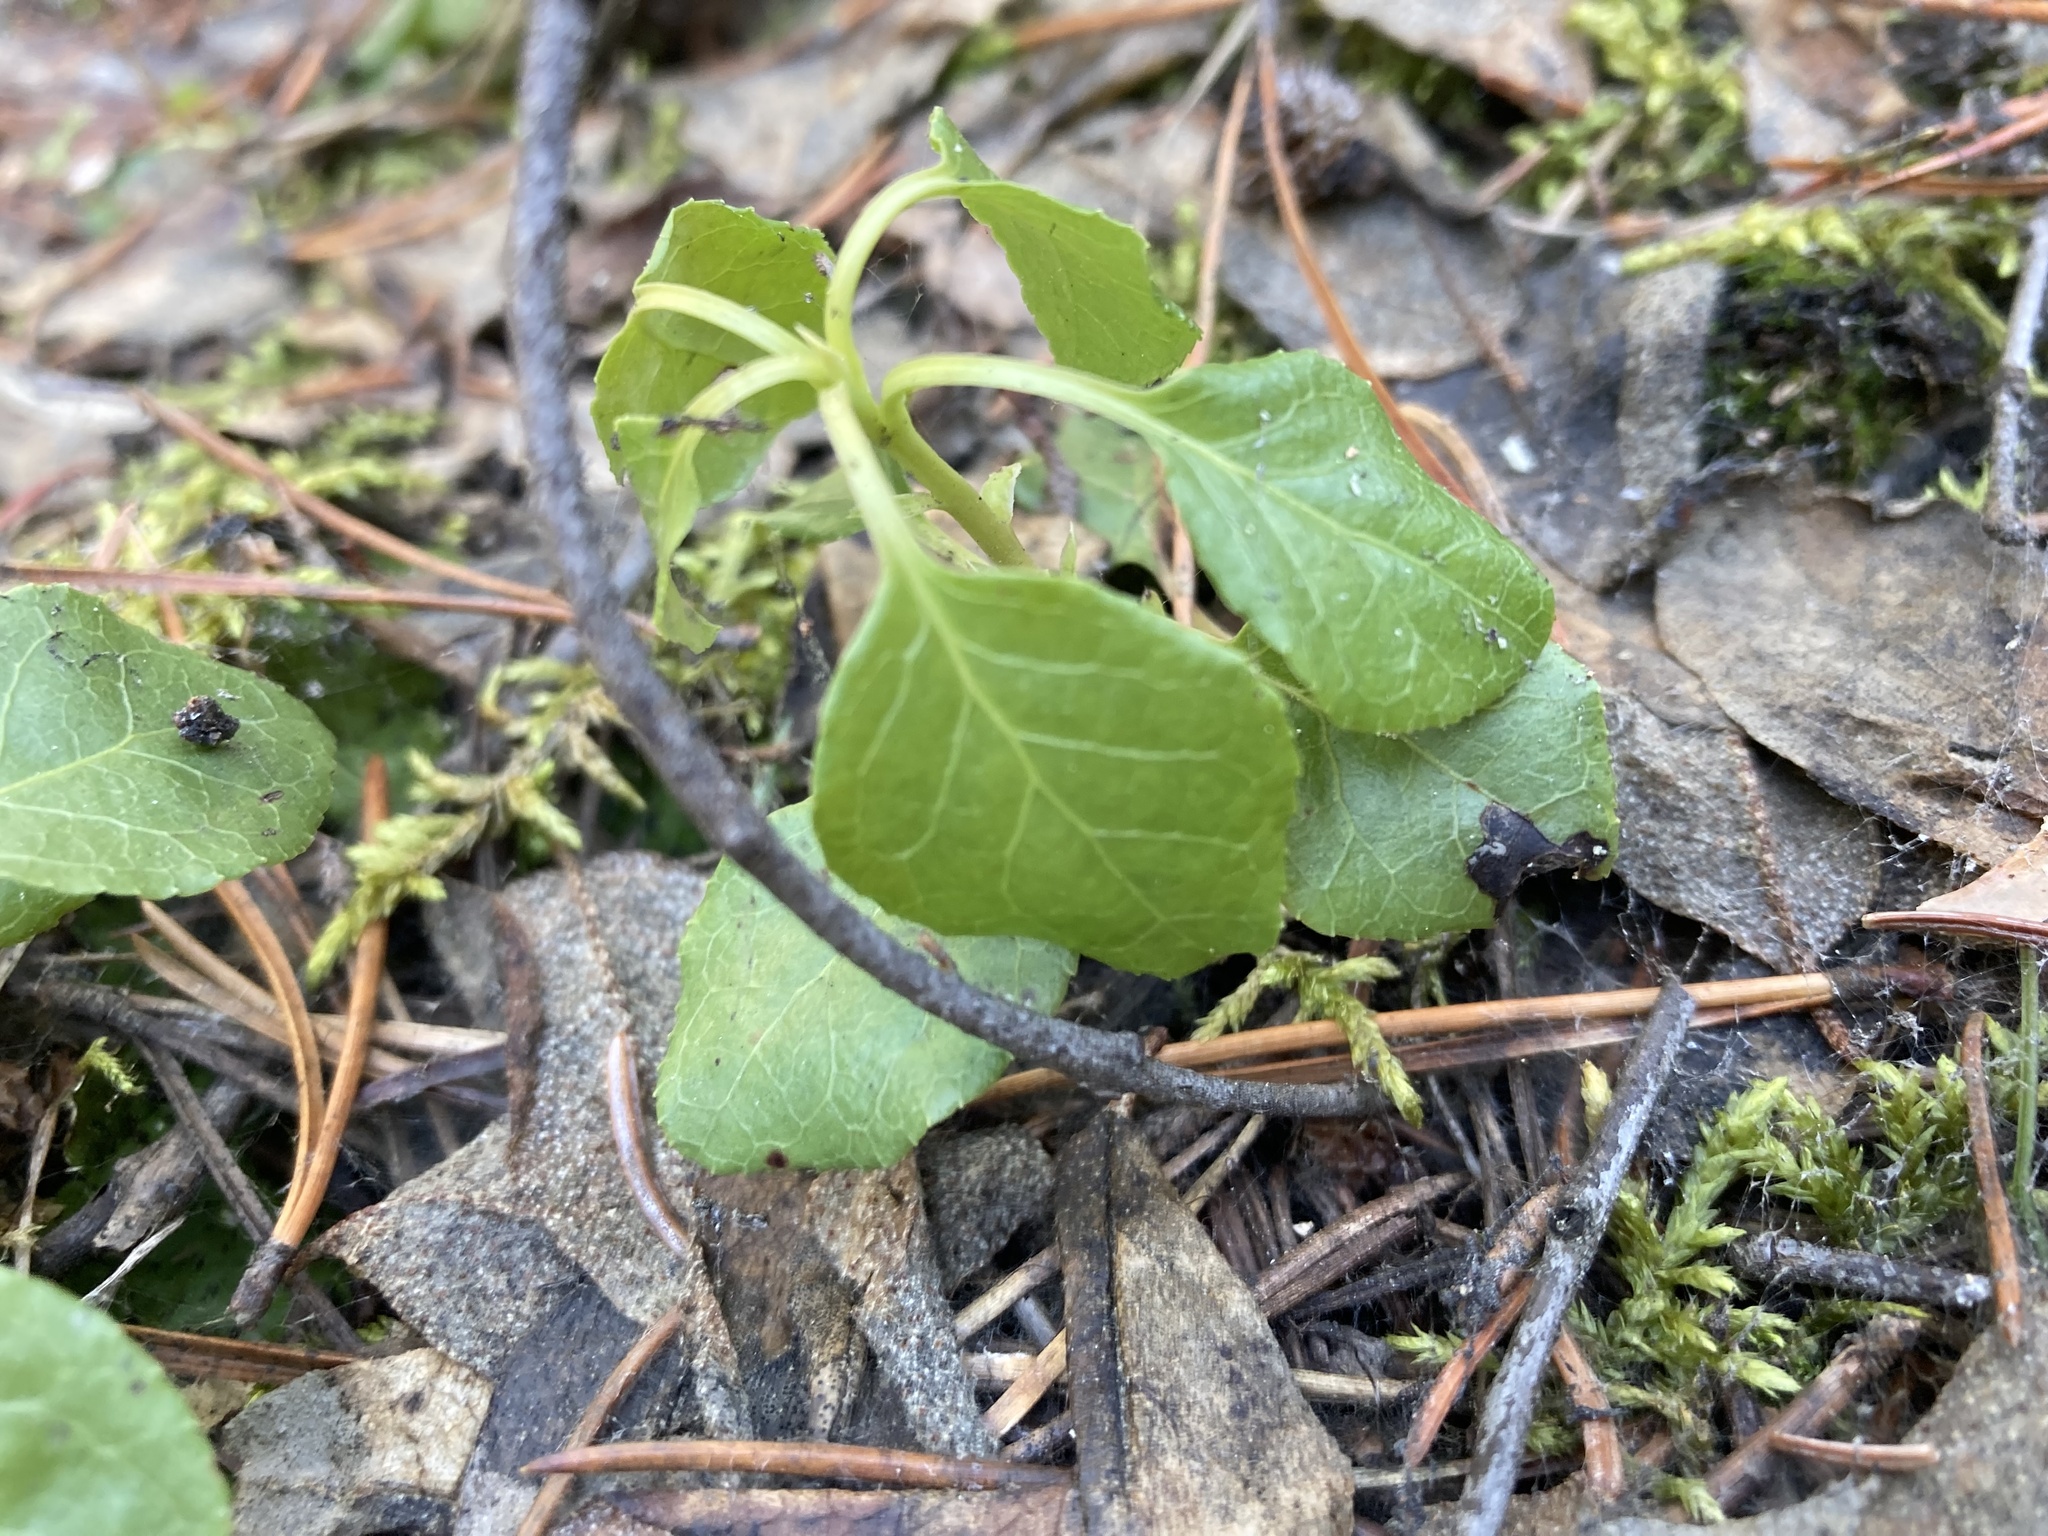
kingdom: Plantae
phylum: Tracheophyta
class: Magnoliopsida
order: Ericales
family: Ericaceae
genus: Orthilia
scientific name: Orthilia secunda
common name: One-sided orthilia
